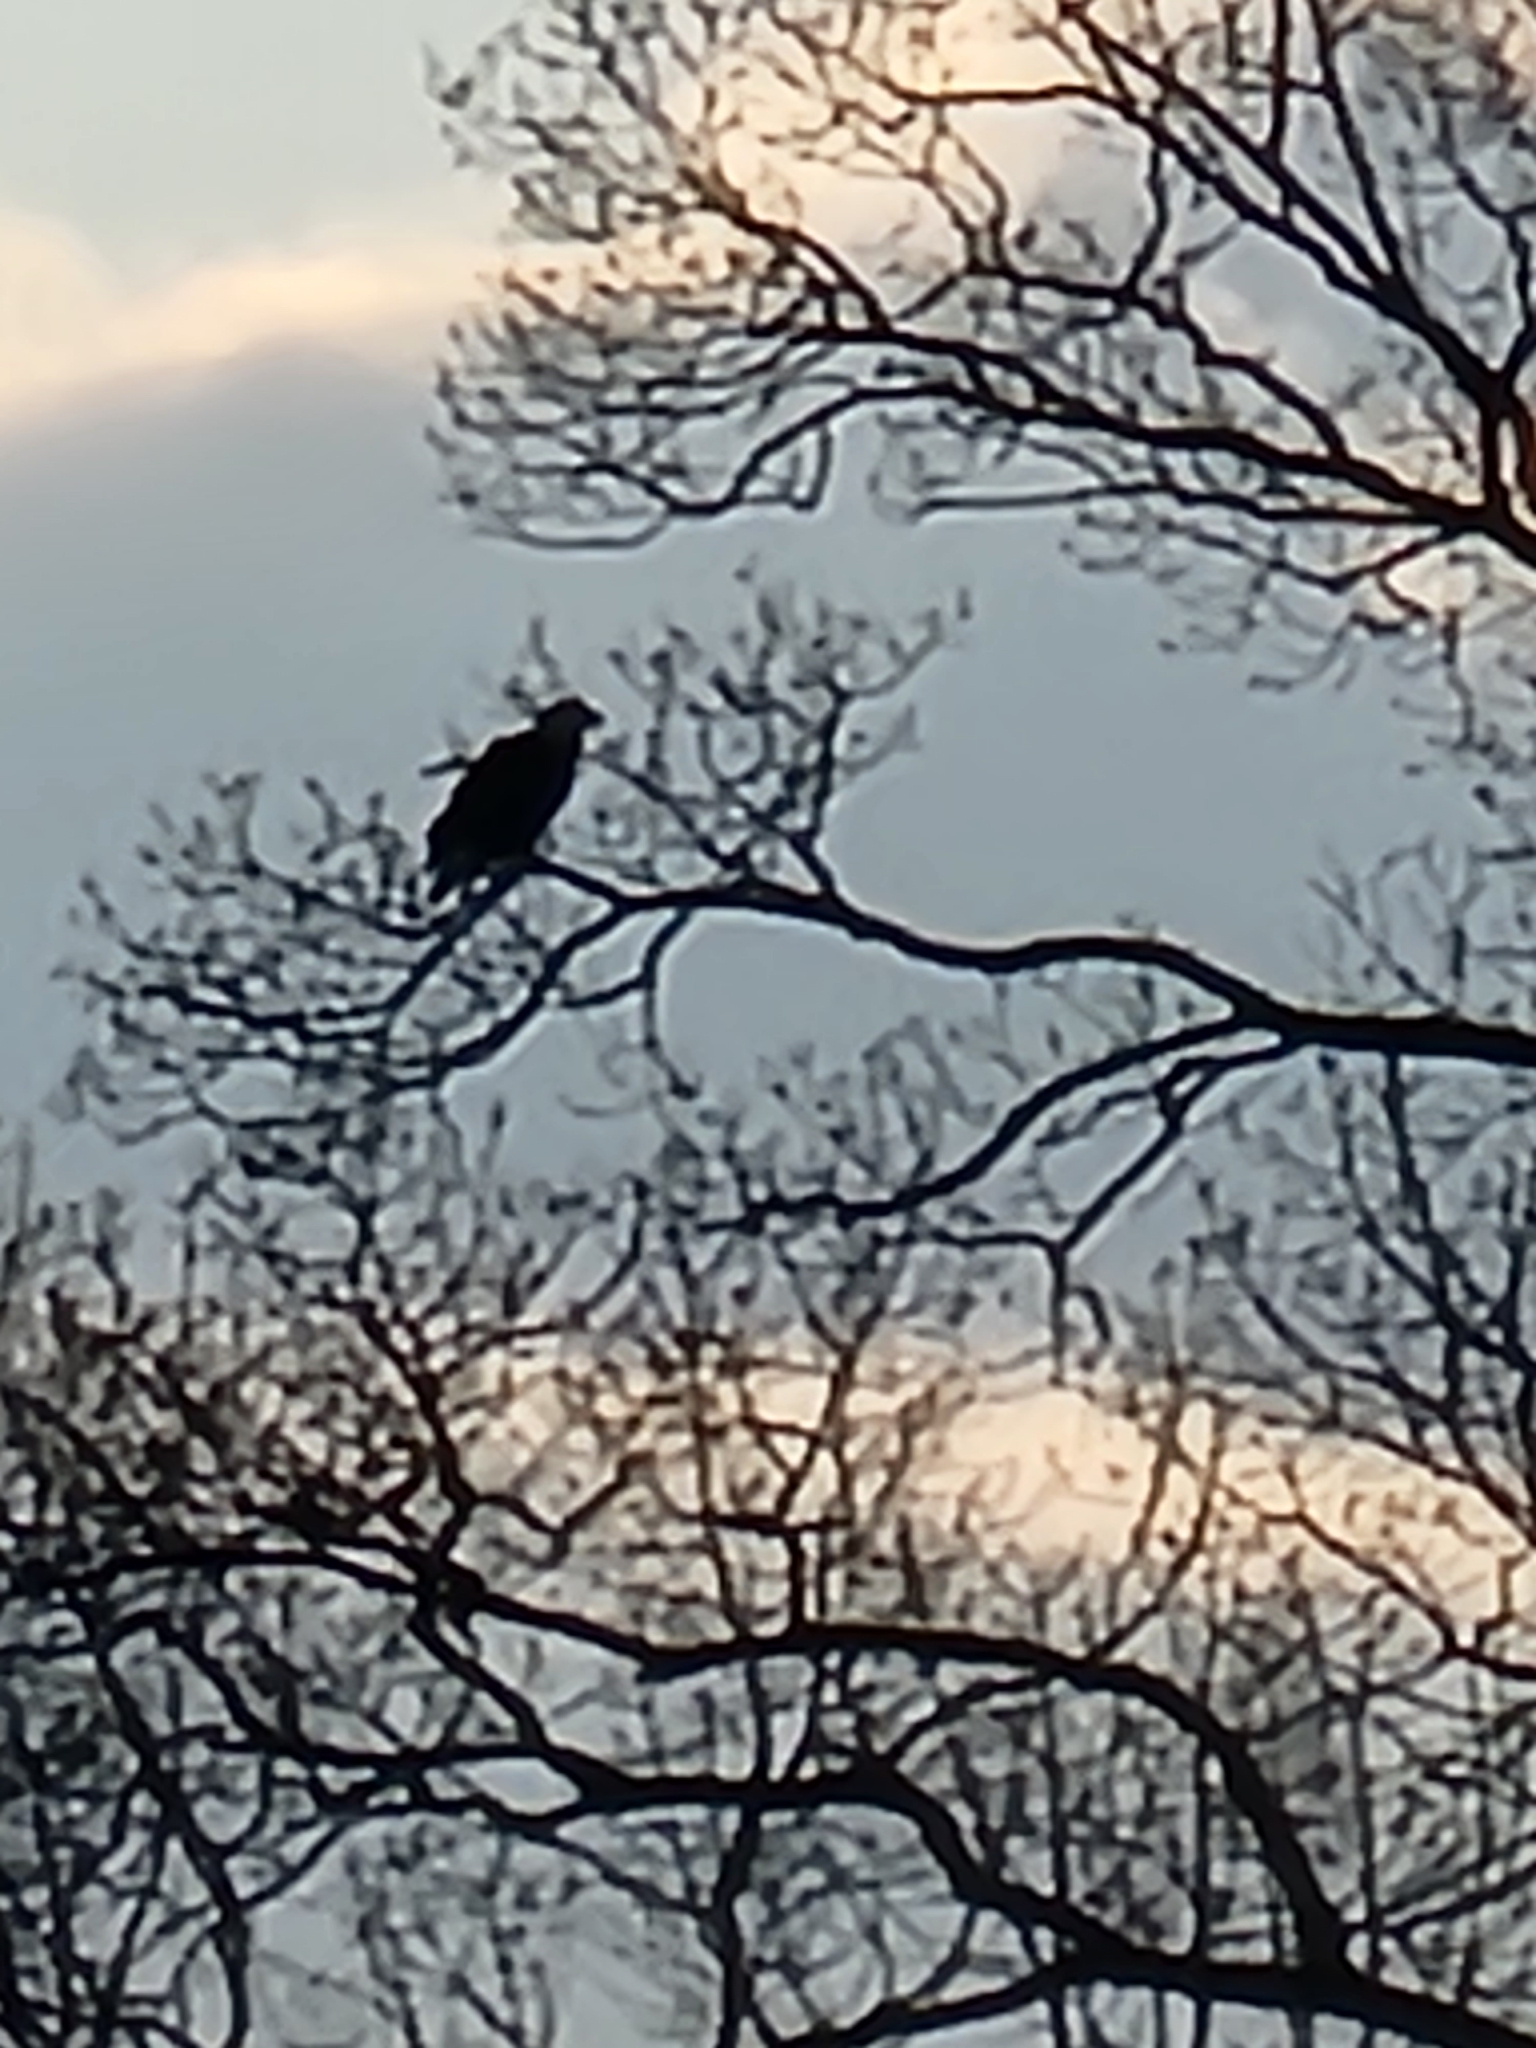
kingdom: Animalia
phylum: Chordata
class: Aves
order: Accipitriformes
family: Accipitridae
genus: Haliaeetus
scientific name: Haliaeetus leucocephalus
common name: Bald eagle
